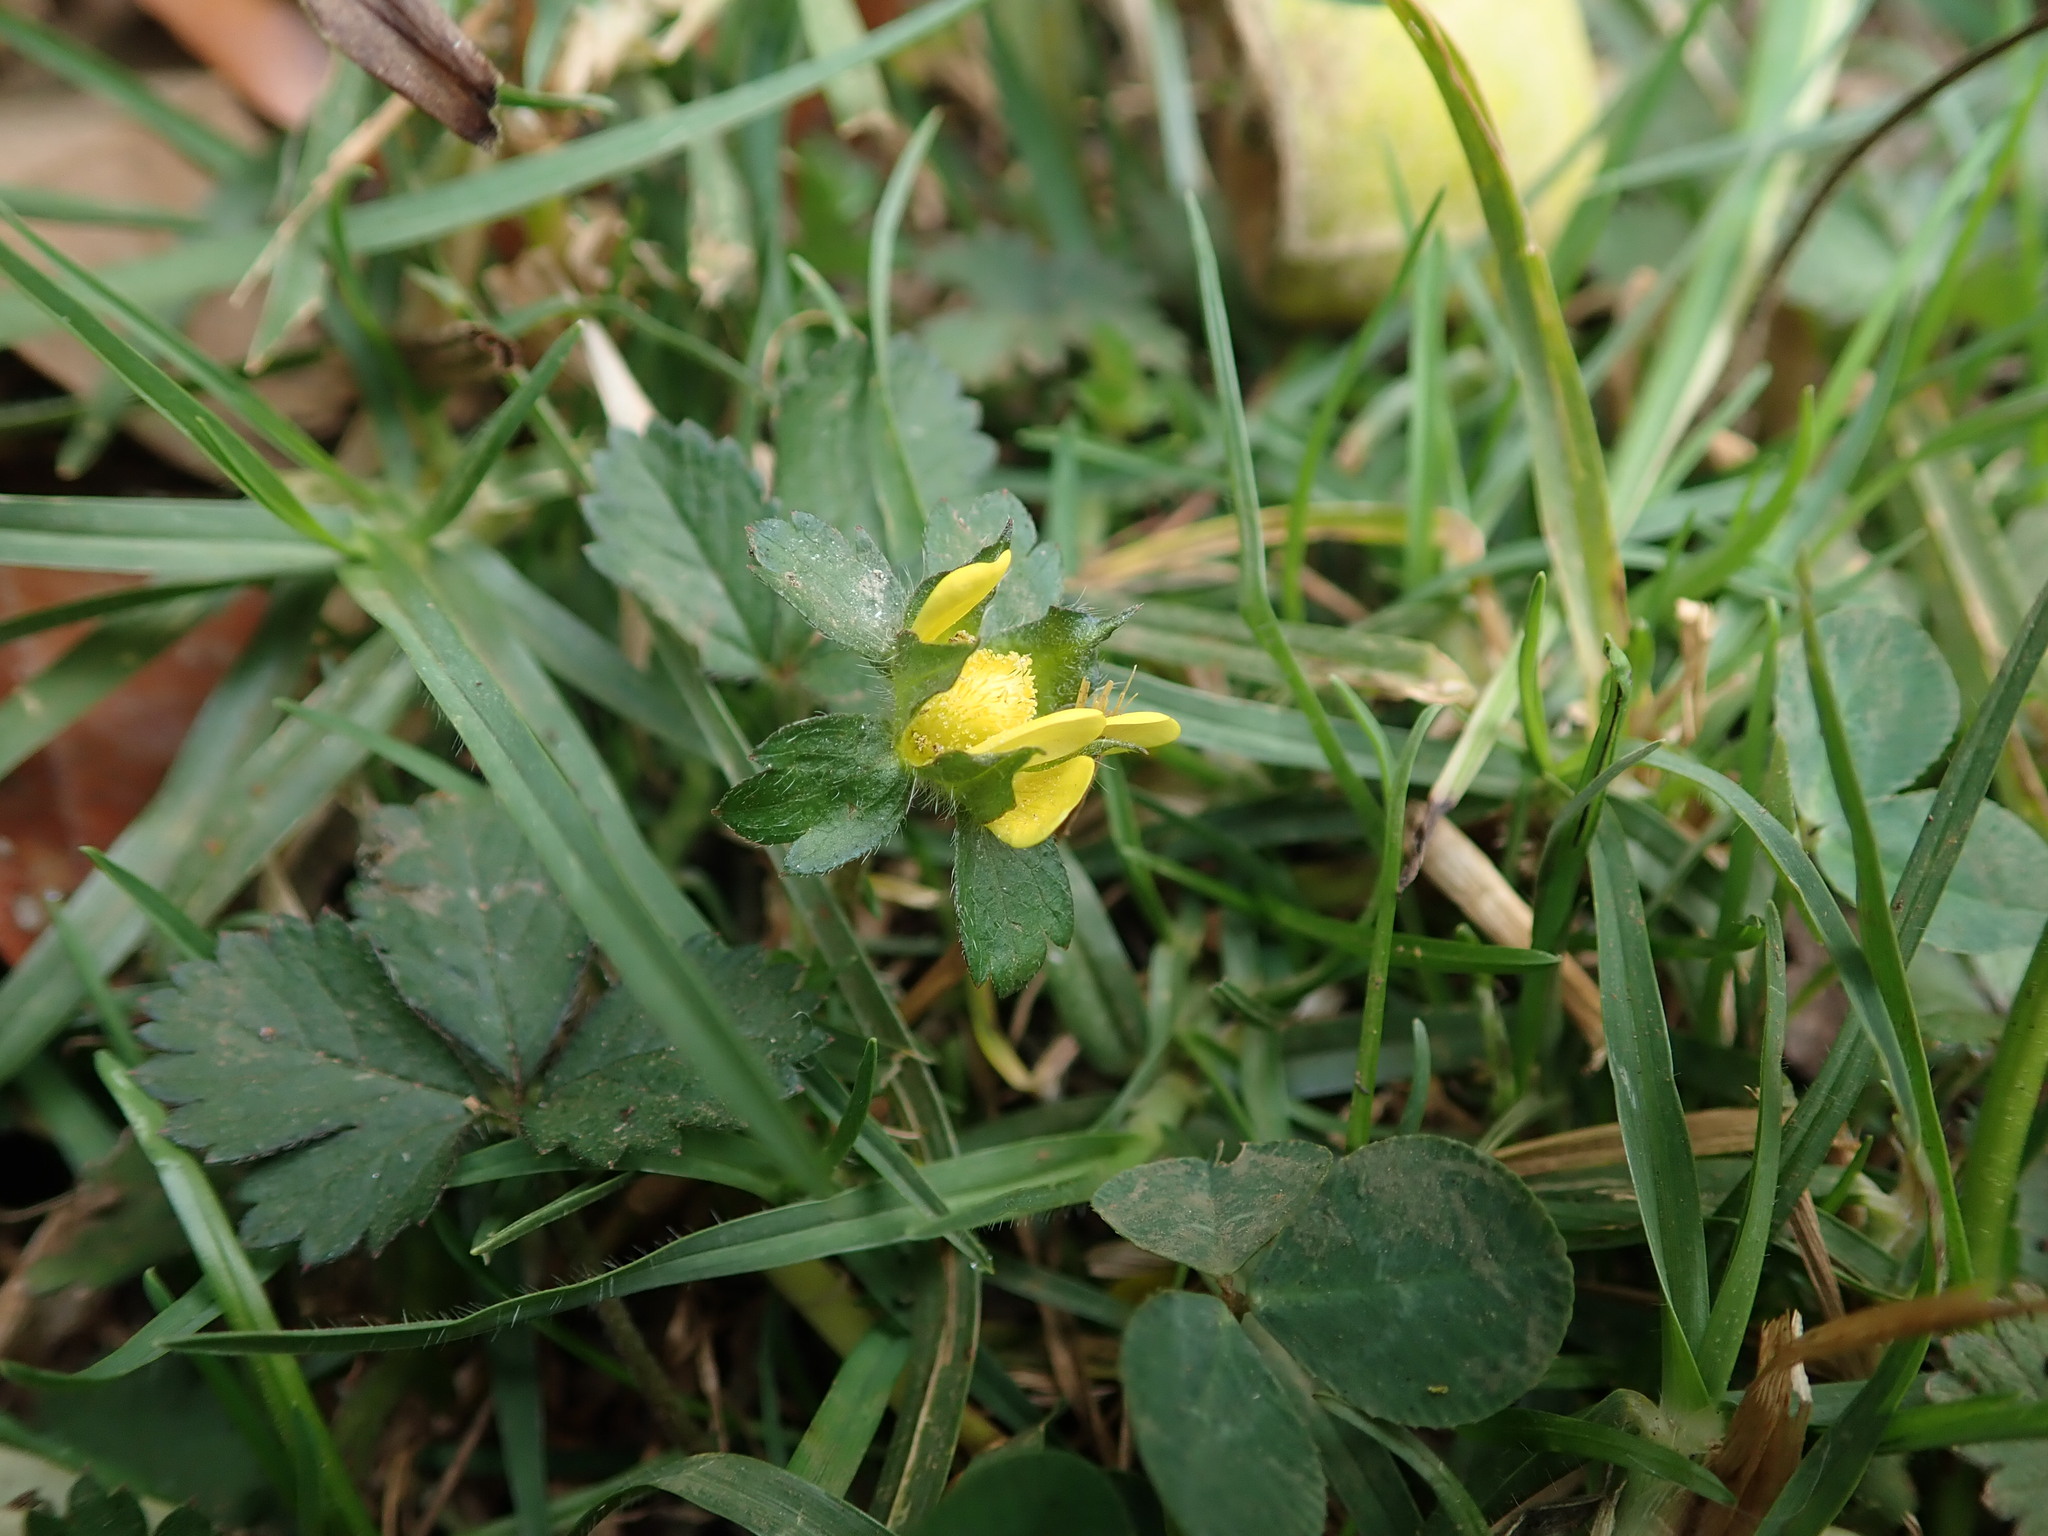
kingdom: Plantae
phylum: Tracheophyta
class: Magnoliopsida
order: Rosales
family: Rosaceae
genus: Potentilla
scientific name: Potentilla indica
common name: Yellow-flowered strawberry
